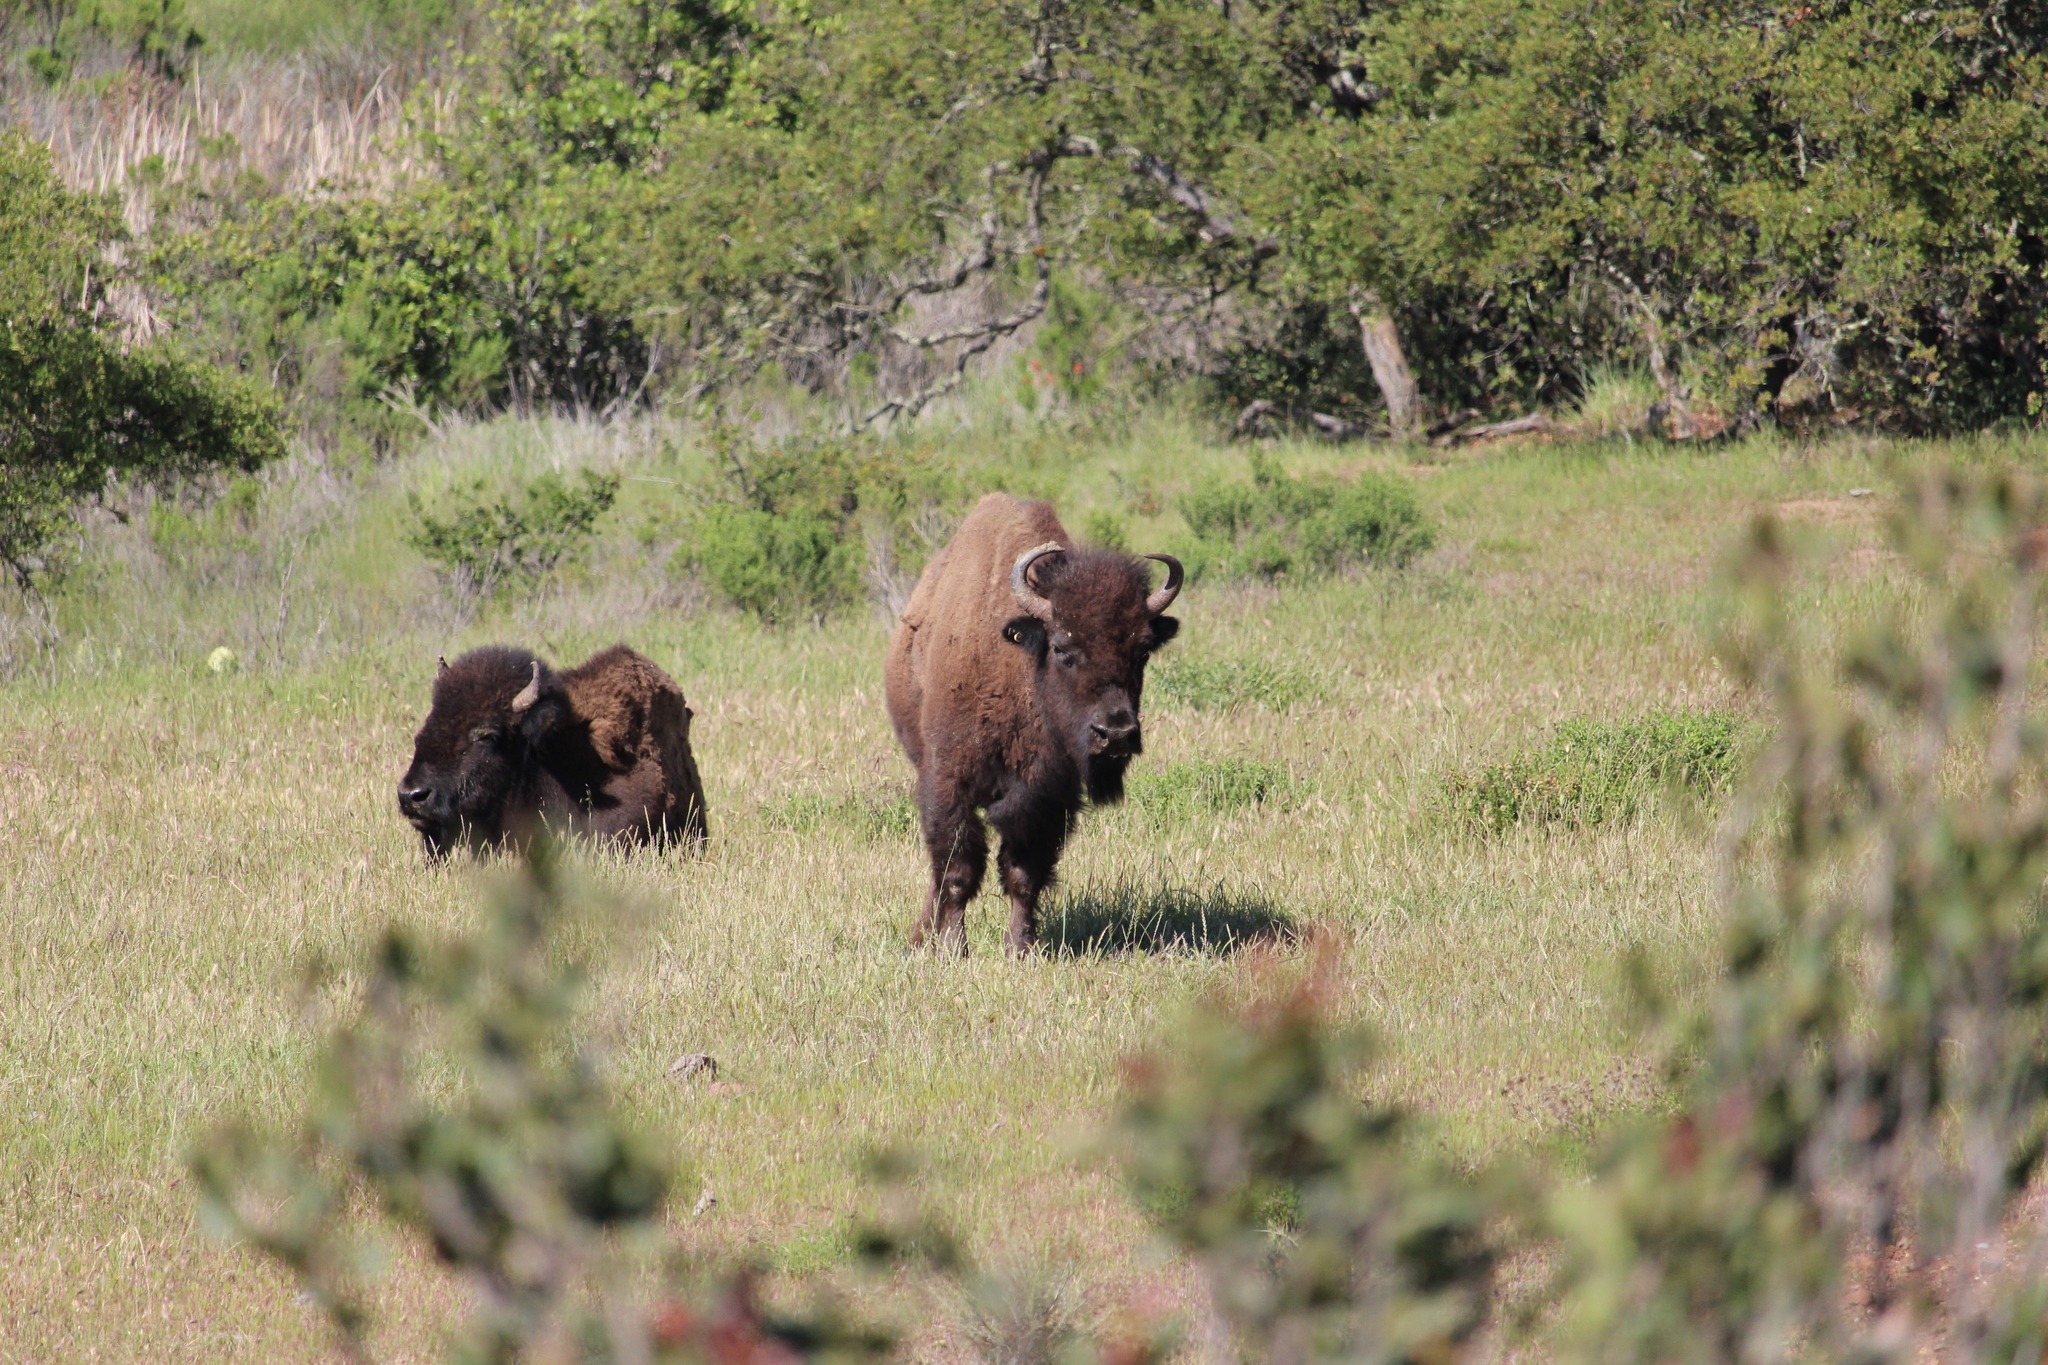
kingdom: Animalia
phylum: Chordata
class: Mammalia
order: Artiodactyla
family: Bovidae
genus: Bison
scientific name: Bison bison
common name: American bison
